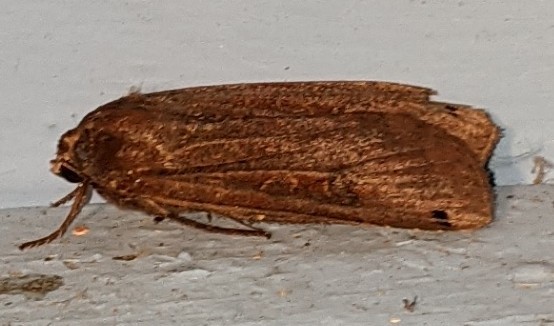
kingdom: Animalia
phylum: Arthropoda
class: Insecta
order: Lepidoptera
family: Noctuidae
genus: Noctua
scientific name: Noctua pronuba
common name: Large yellow underwing
